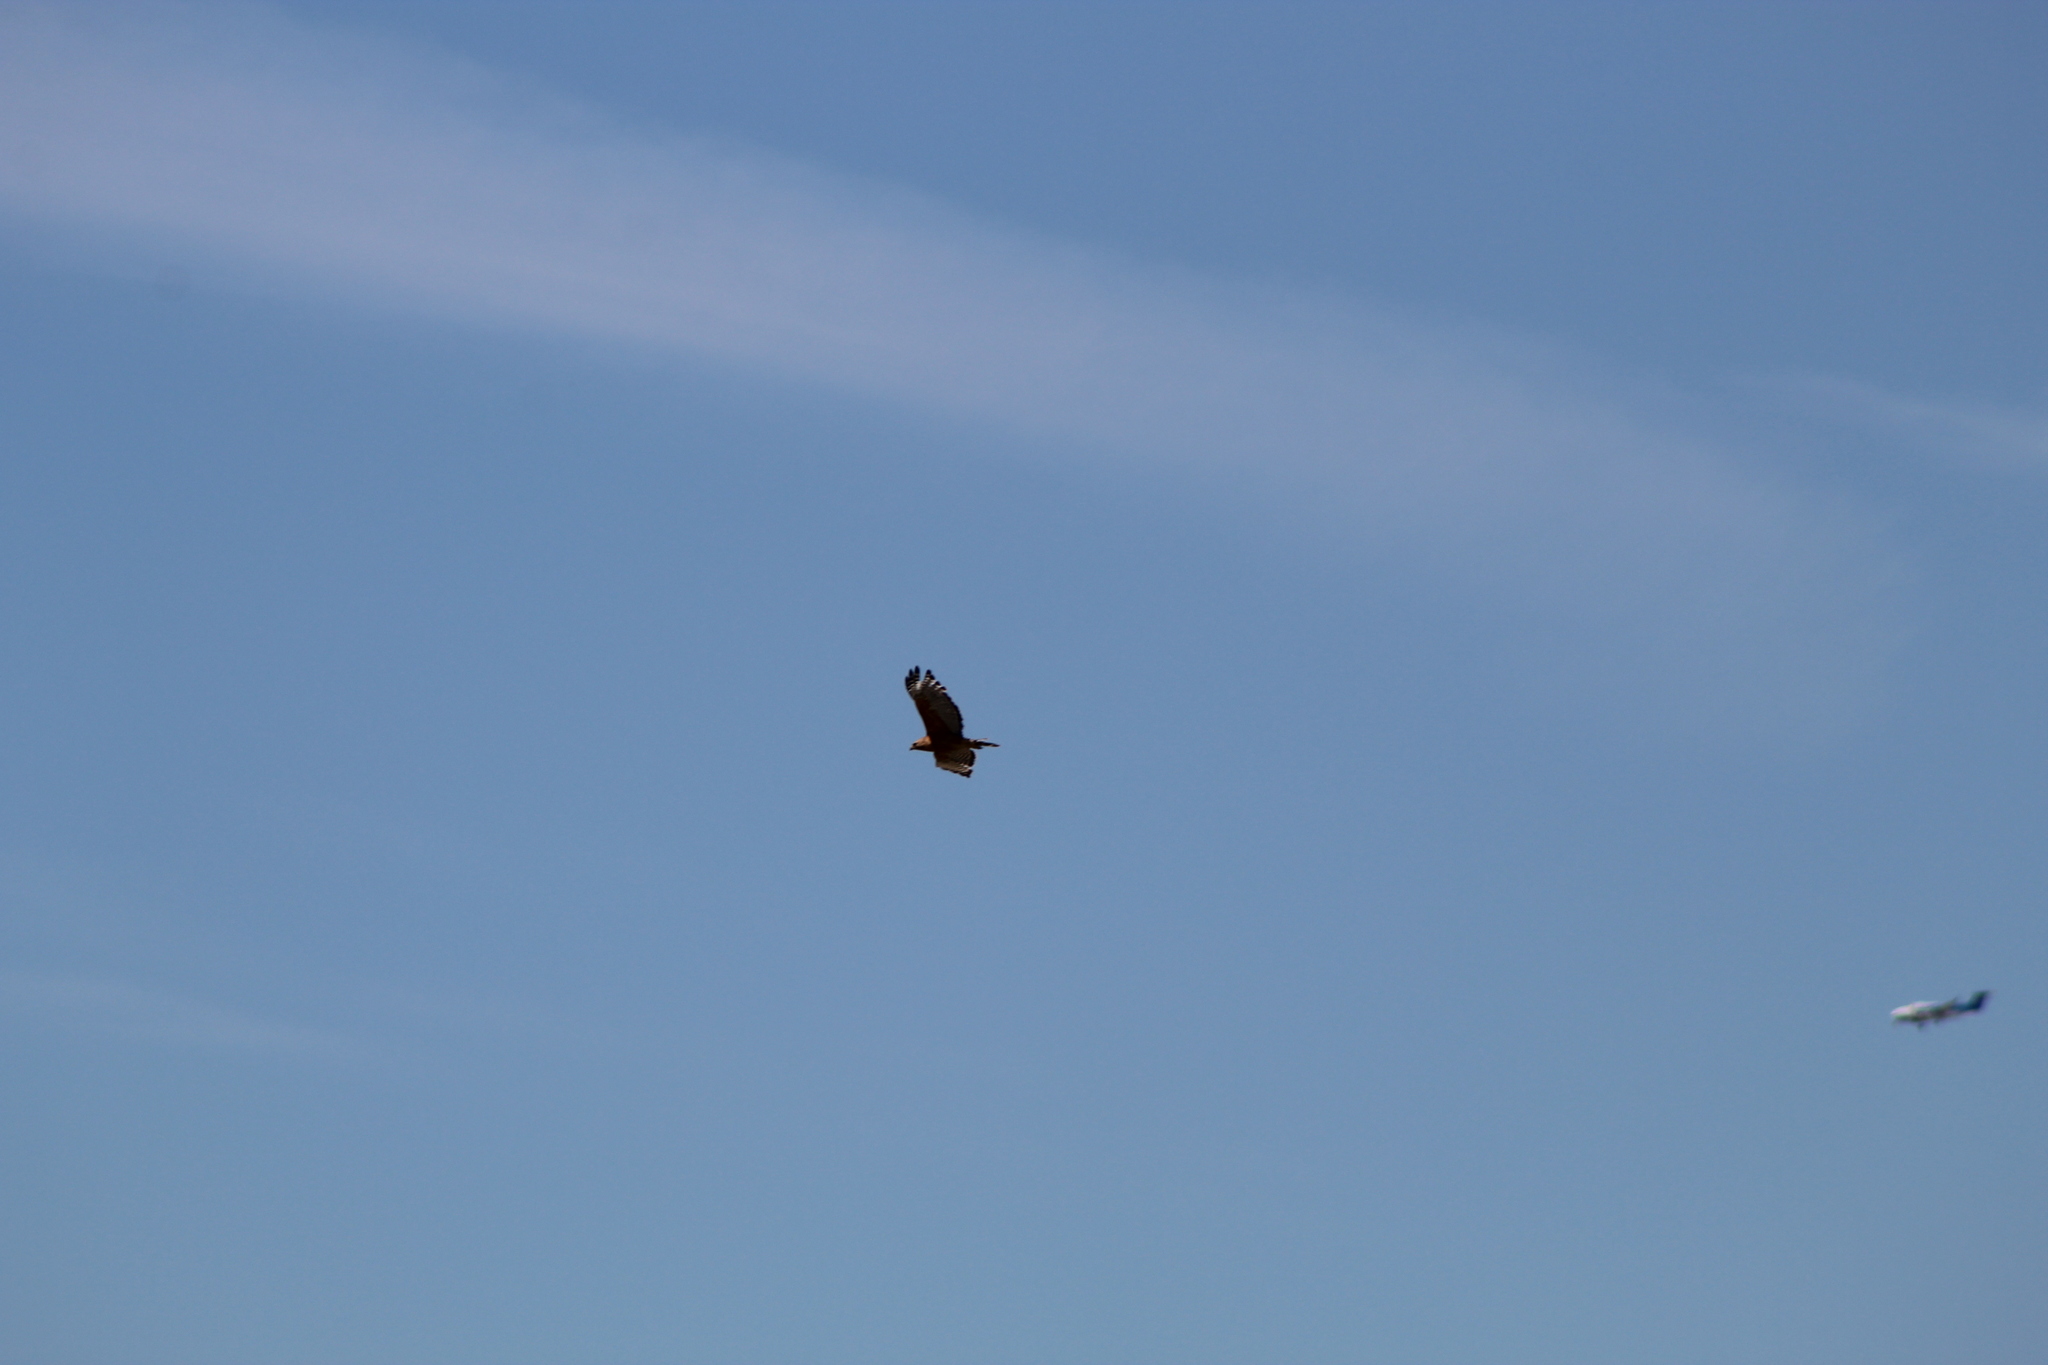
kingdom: Animalia
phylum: Chordata
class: Aves
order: Accipitriformes
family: Accipitridae
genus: Buteo
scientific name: Buteo lineatus
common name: Red-shouldered hawk
